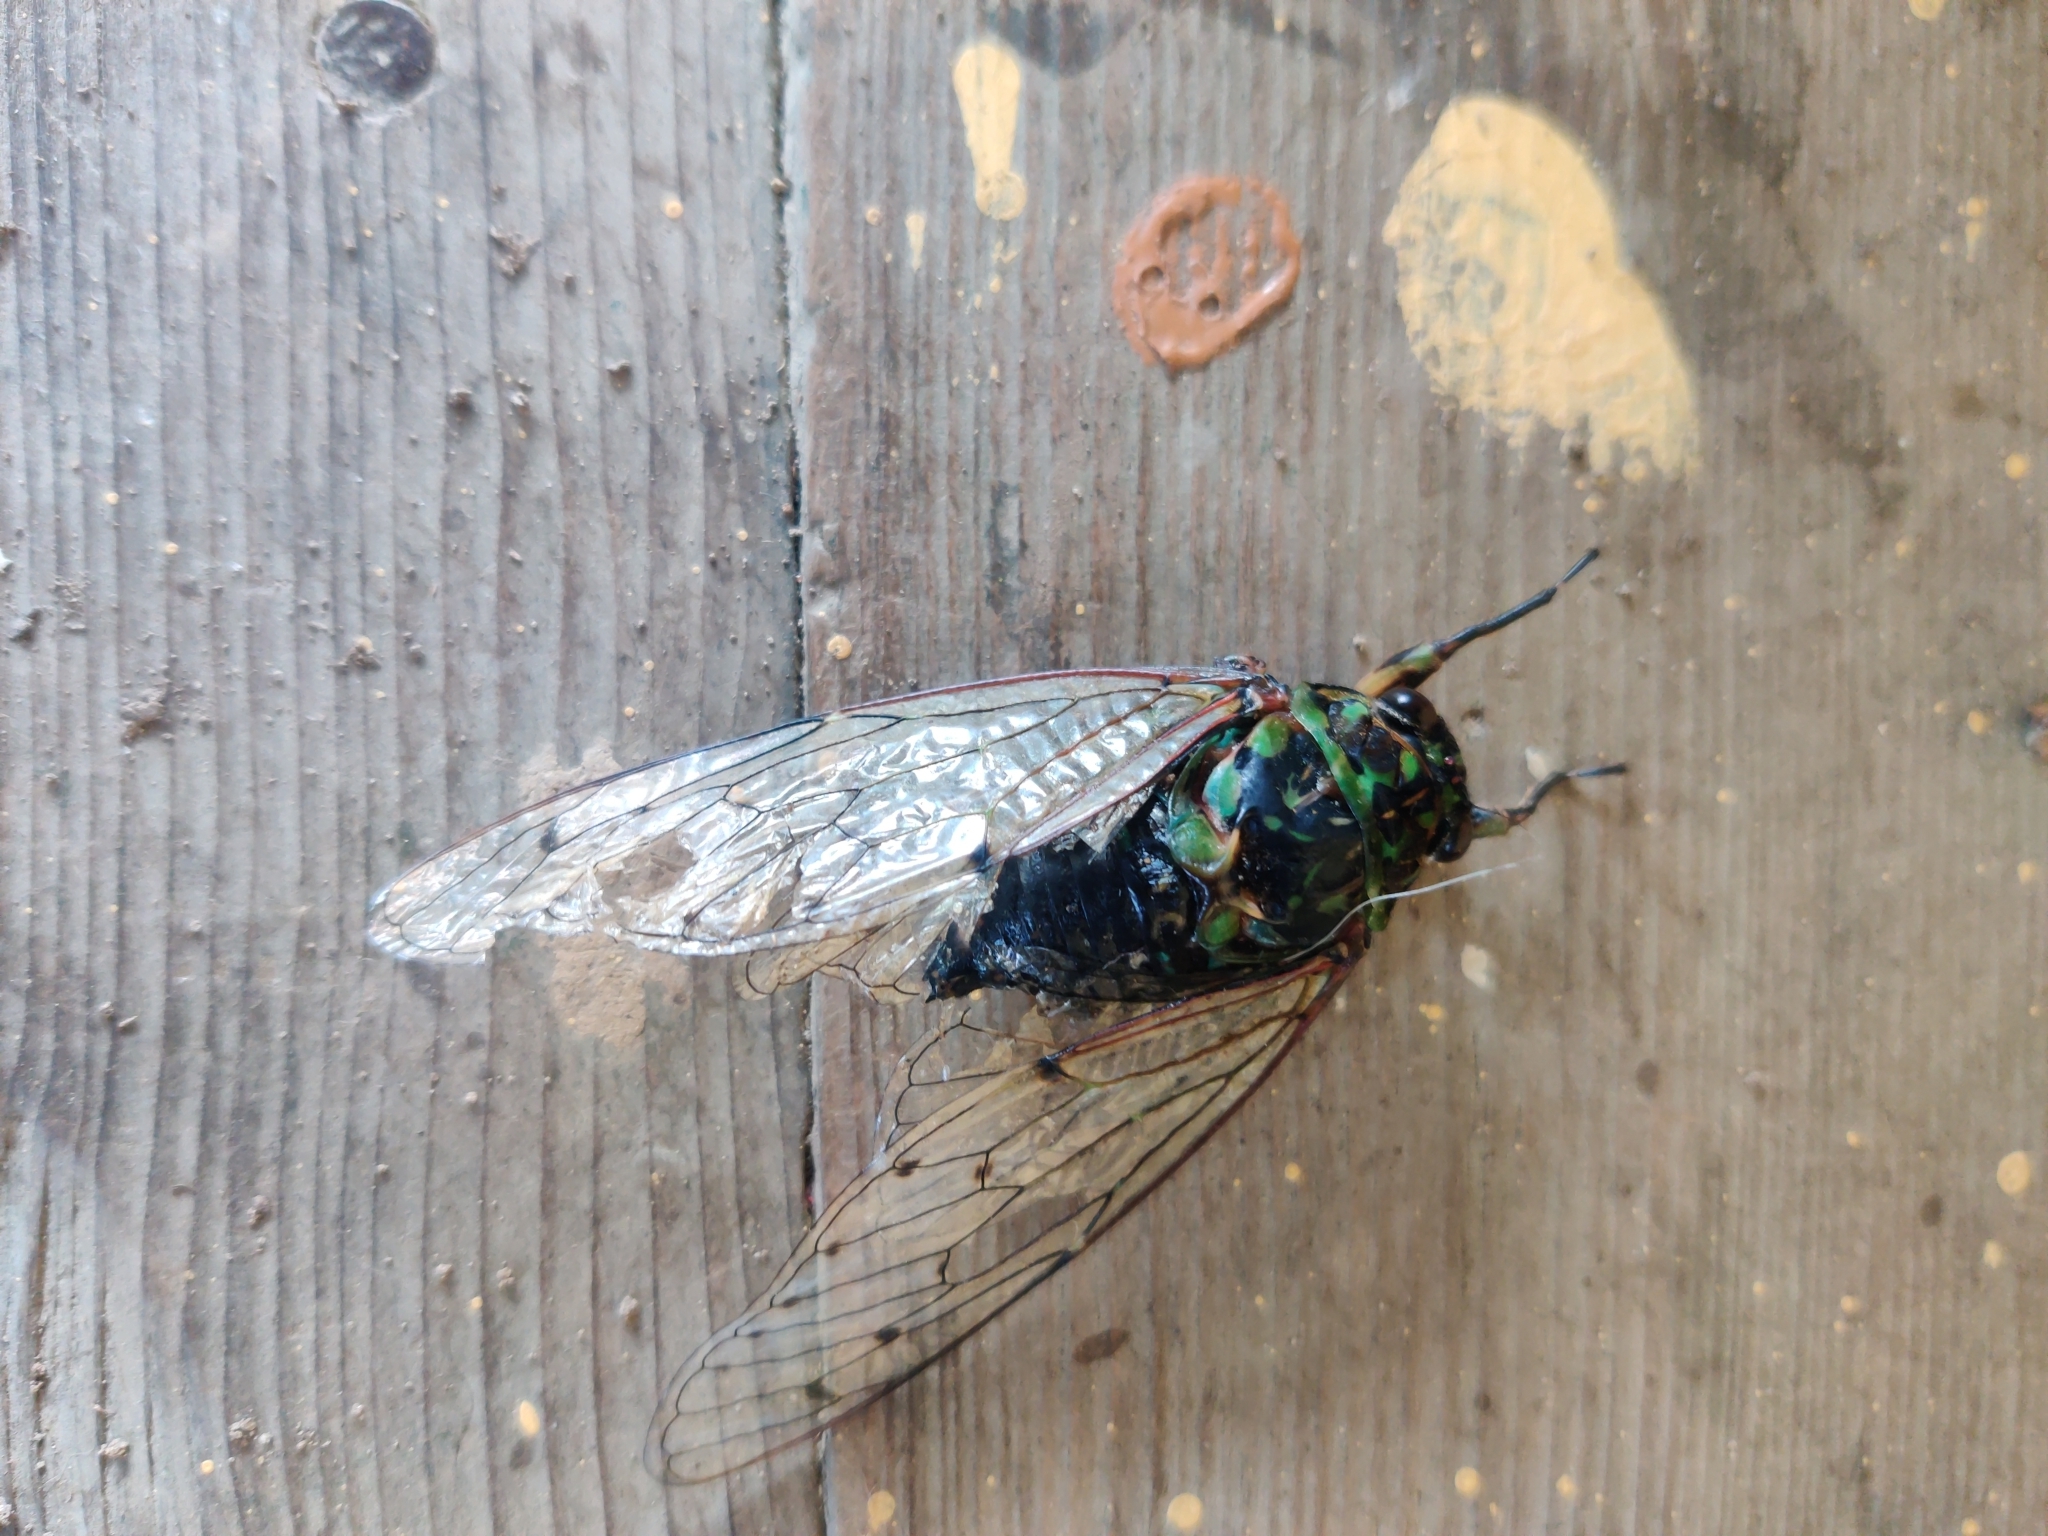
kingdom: Animalia
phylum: Arthropoda
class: Insecta
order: Hemiptera
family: Cicadidae
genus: Hyalessa
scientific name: Hyalessa obnubila
